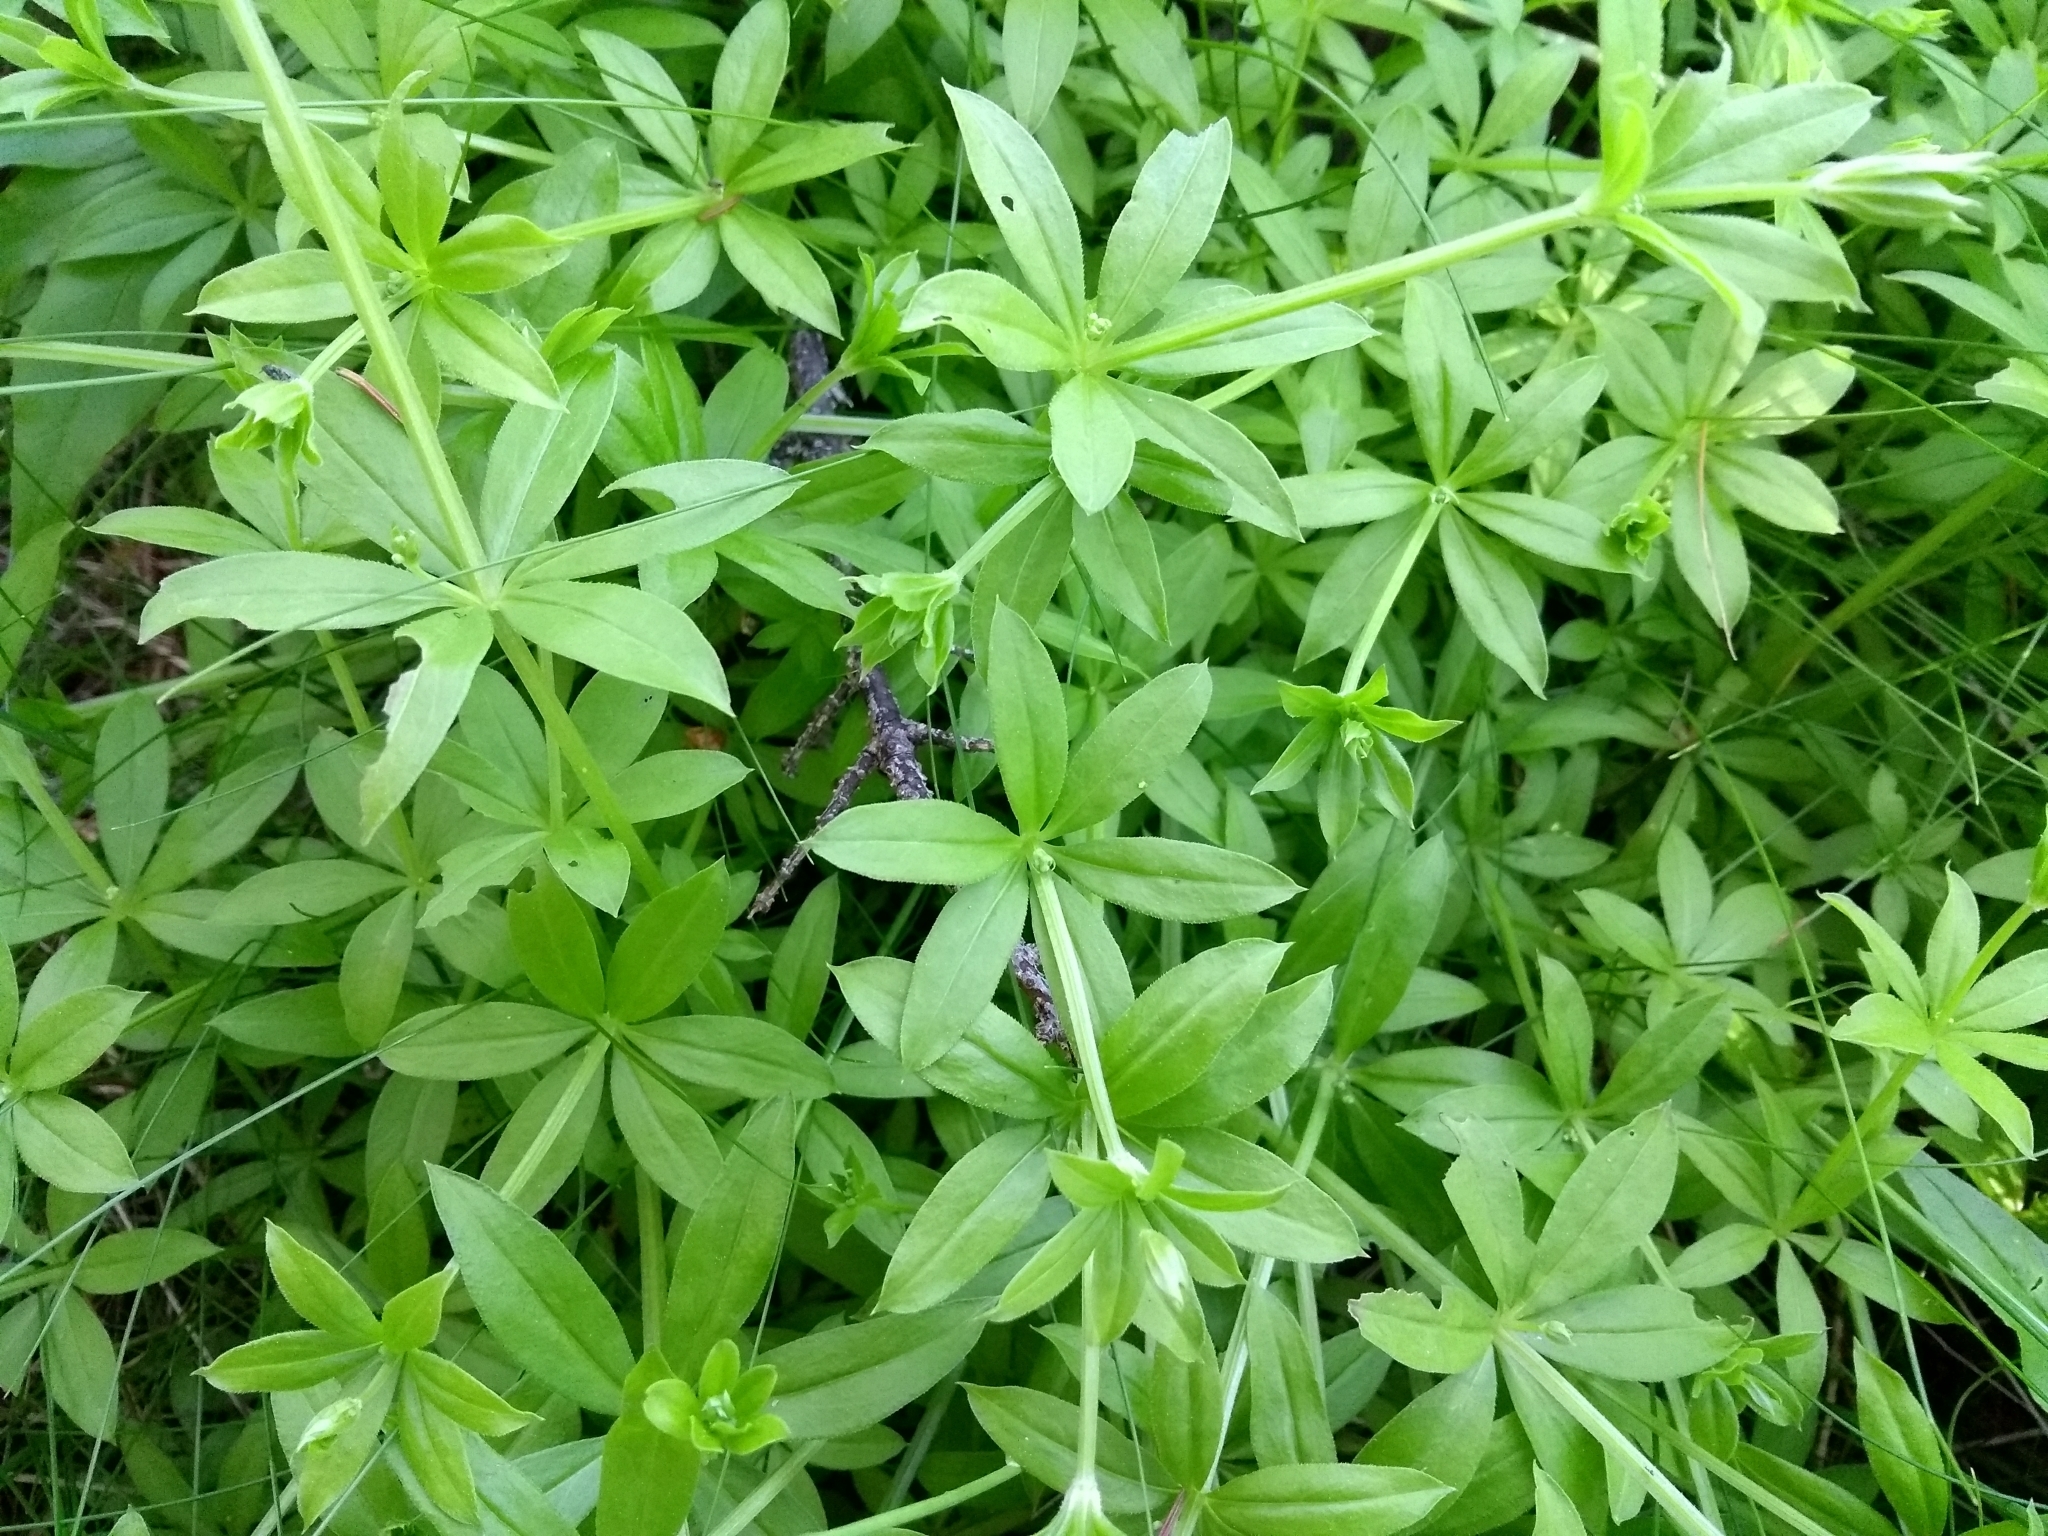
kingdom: Plantae
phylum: Tracheophyta
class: Magnoliopsida
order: Gentianales
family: Rubiaceae
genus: Galium
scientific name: Galium triflorum
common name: Fragrant bedstraw
